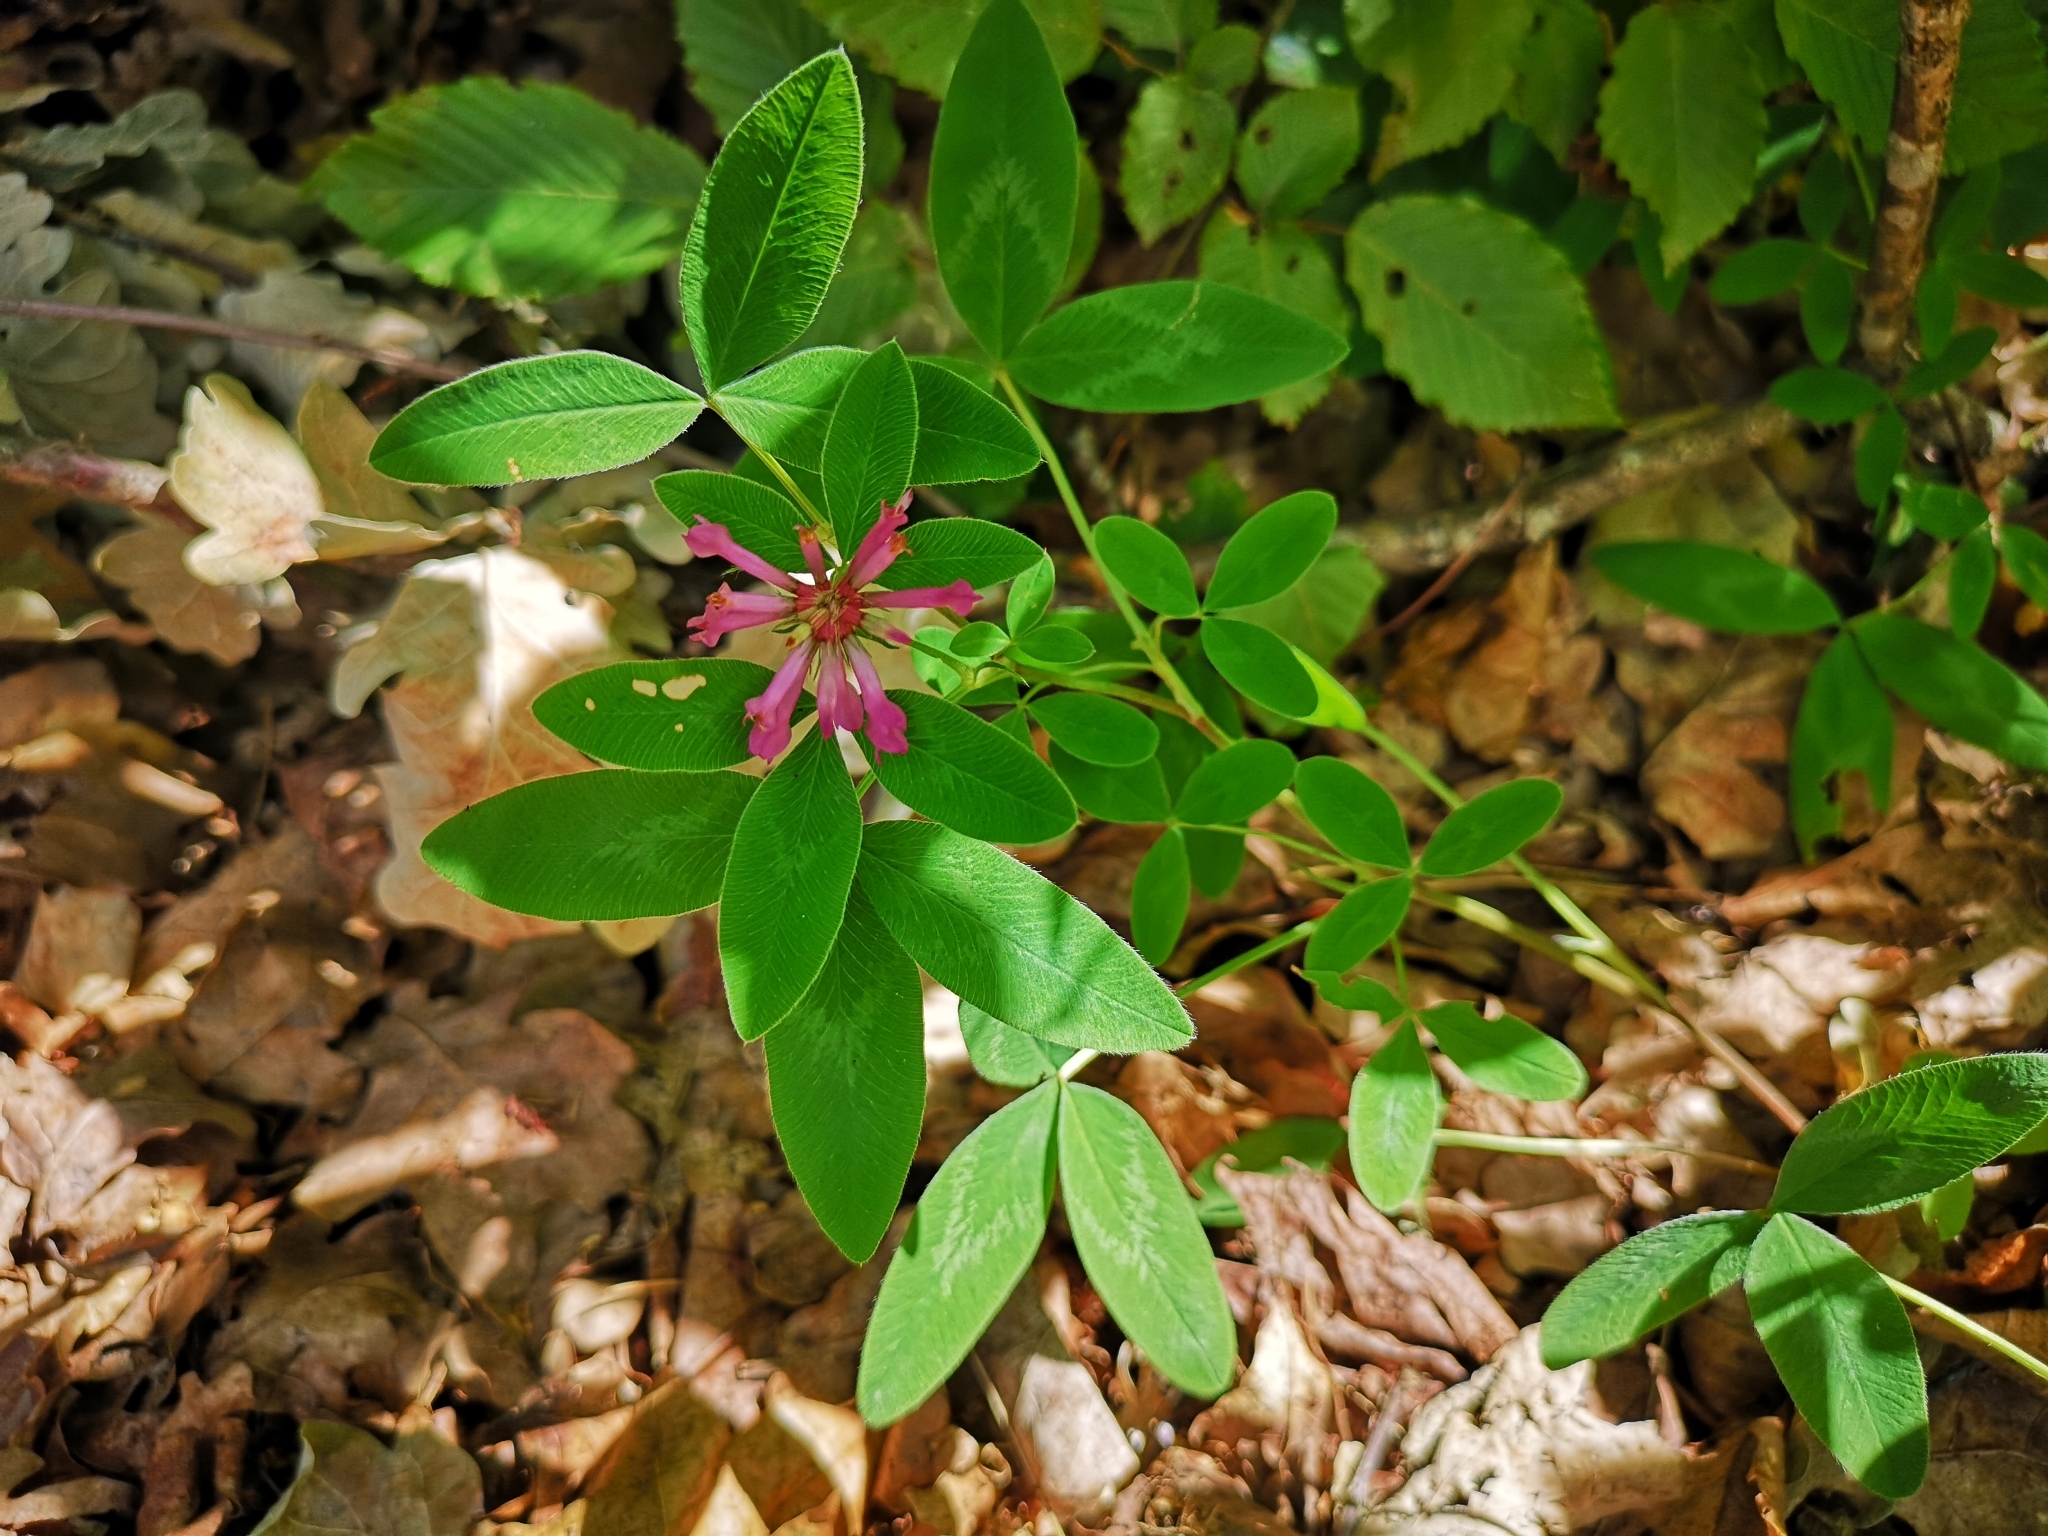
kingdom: Plantae
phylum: Tracheophyta
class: Magnoliopsida
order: Fabales
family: Fabaceae
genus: Trifolium
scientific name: Trifolium medium
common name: Zigzag clover
